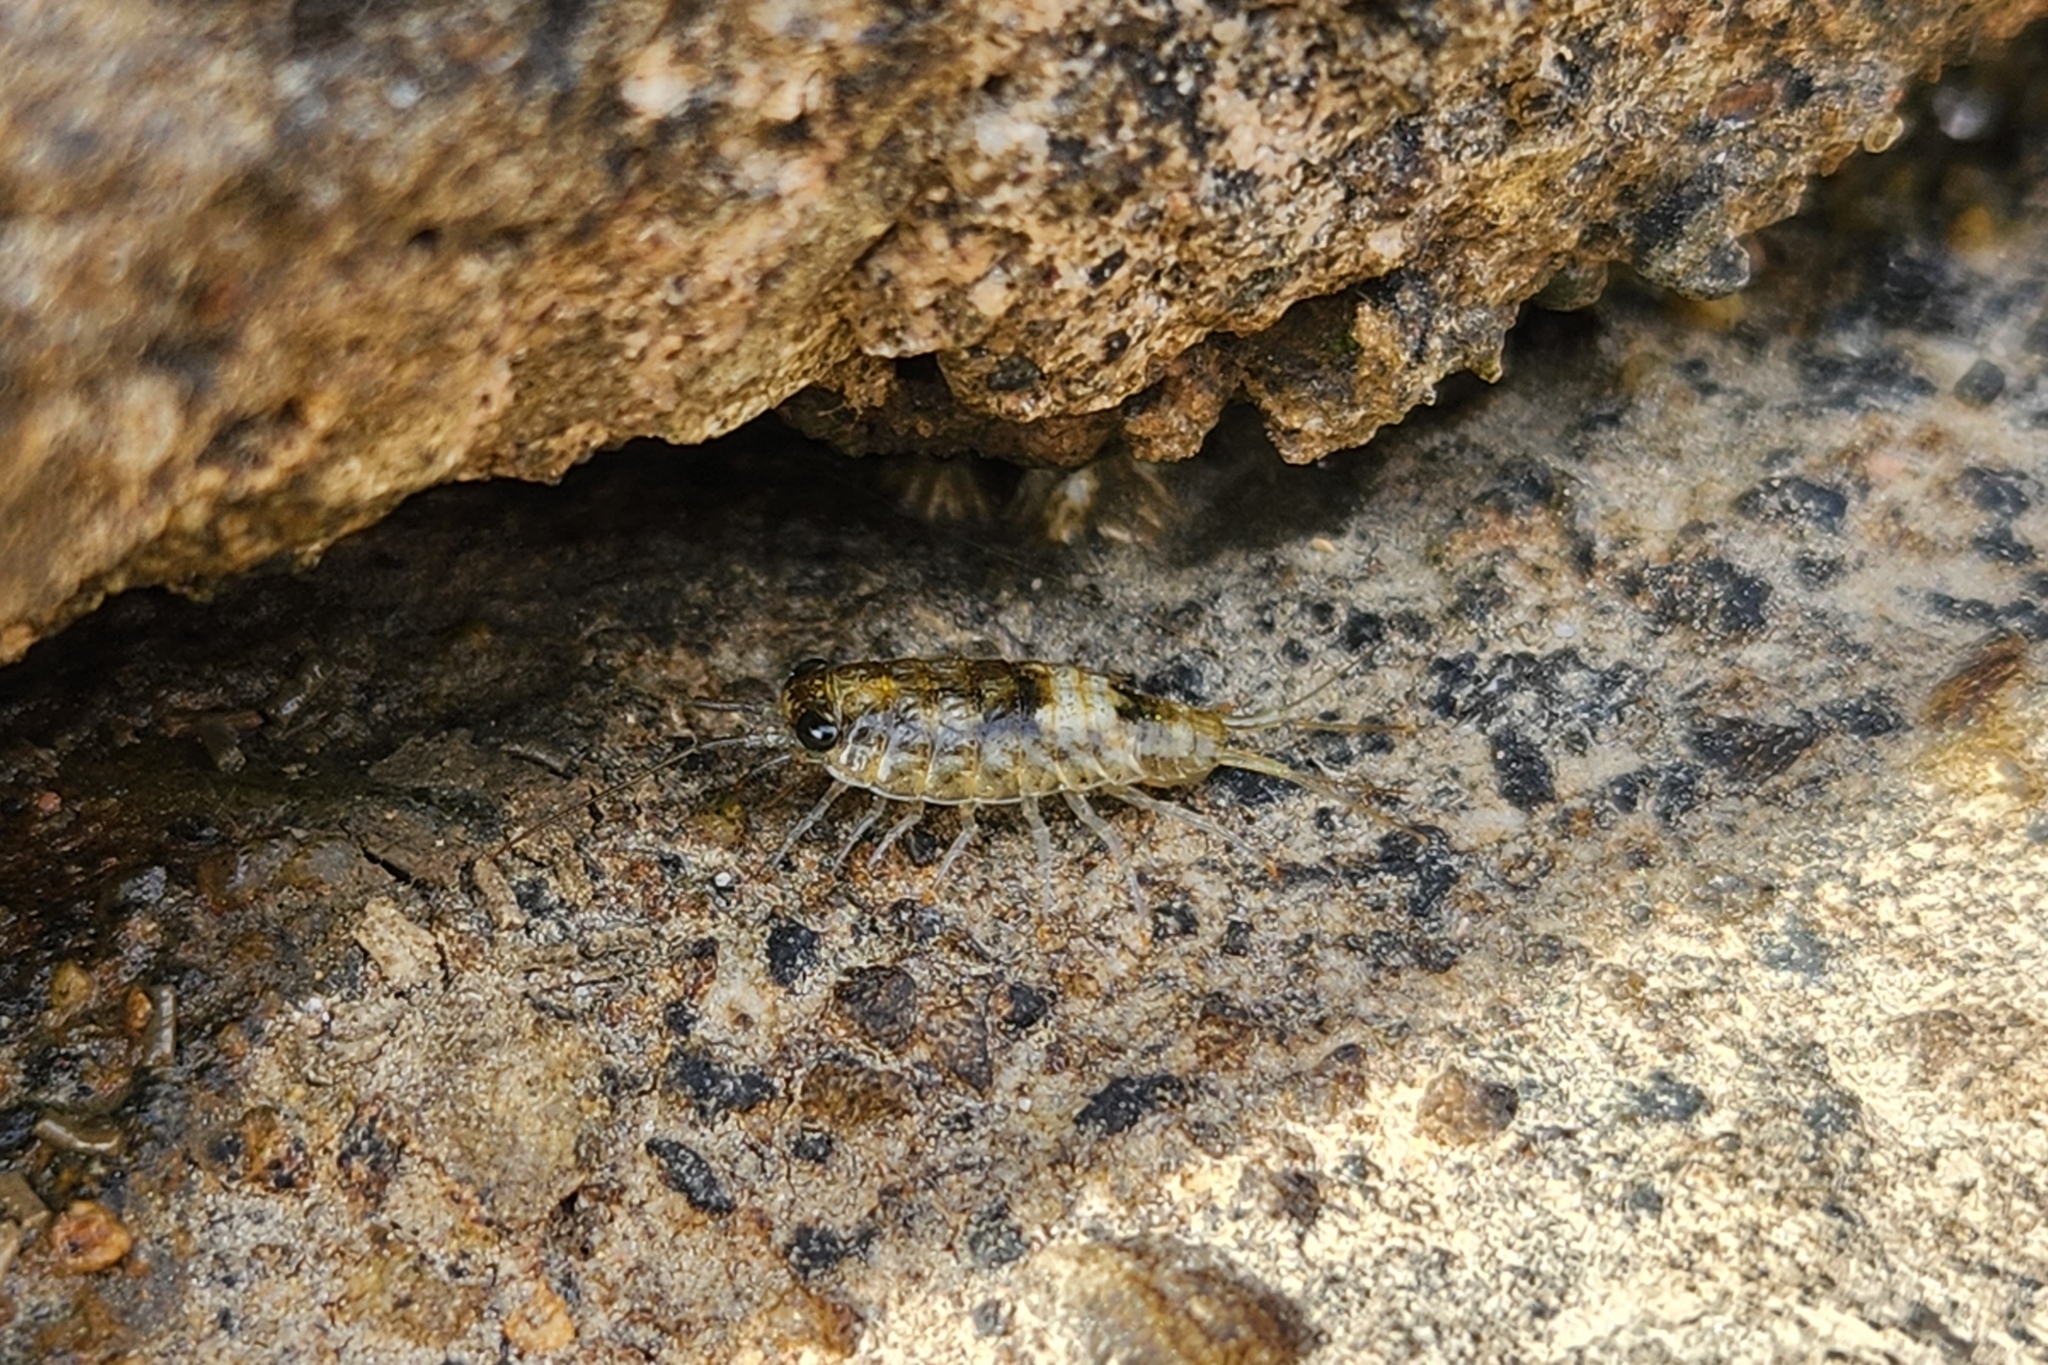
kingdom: Animalia
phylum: Arthropoda
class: Malacostraca
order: Isopoda
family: Ligiidae
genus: Ligia
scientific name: Ligia italica
